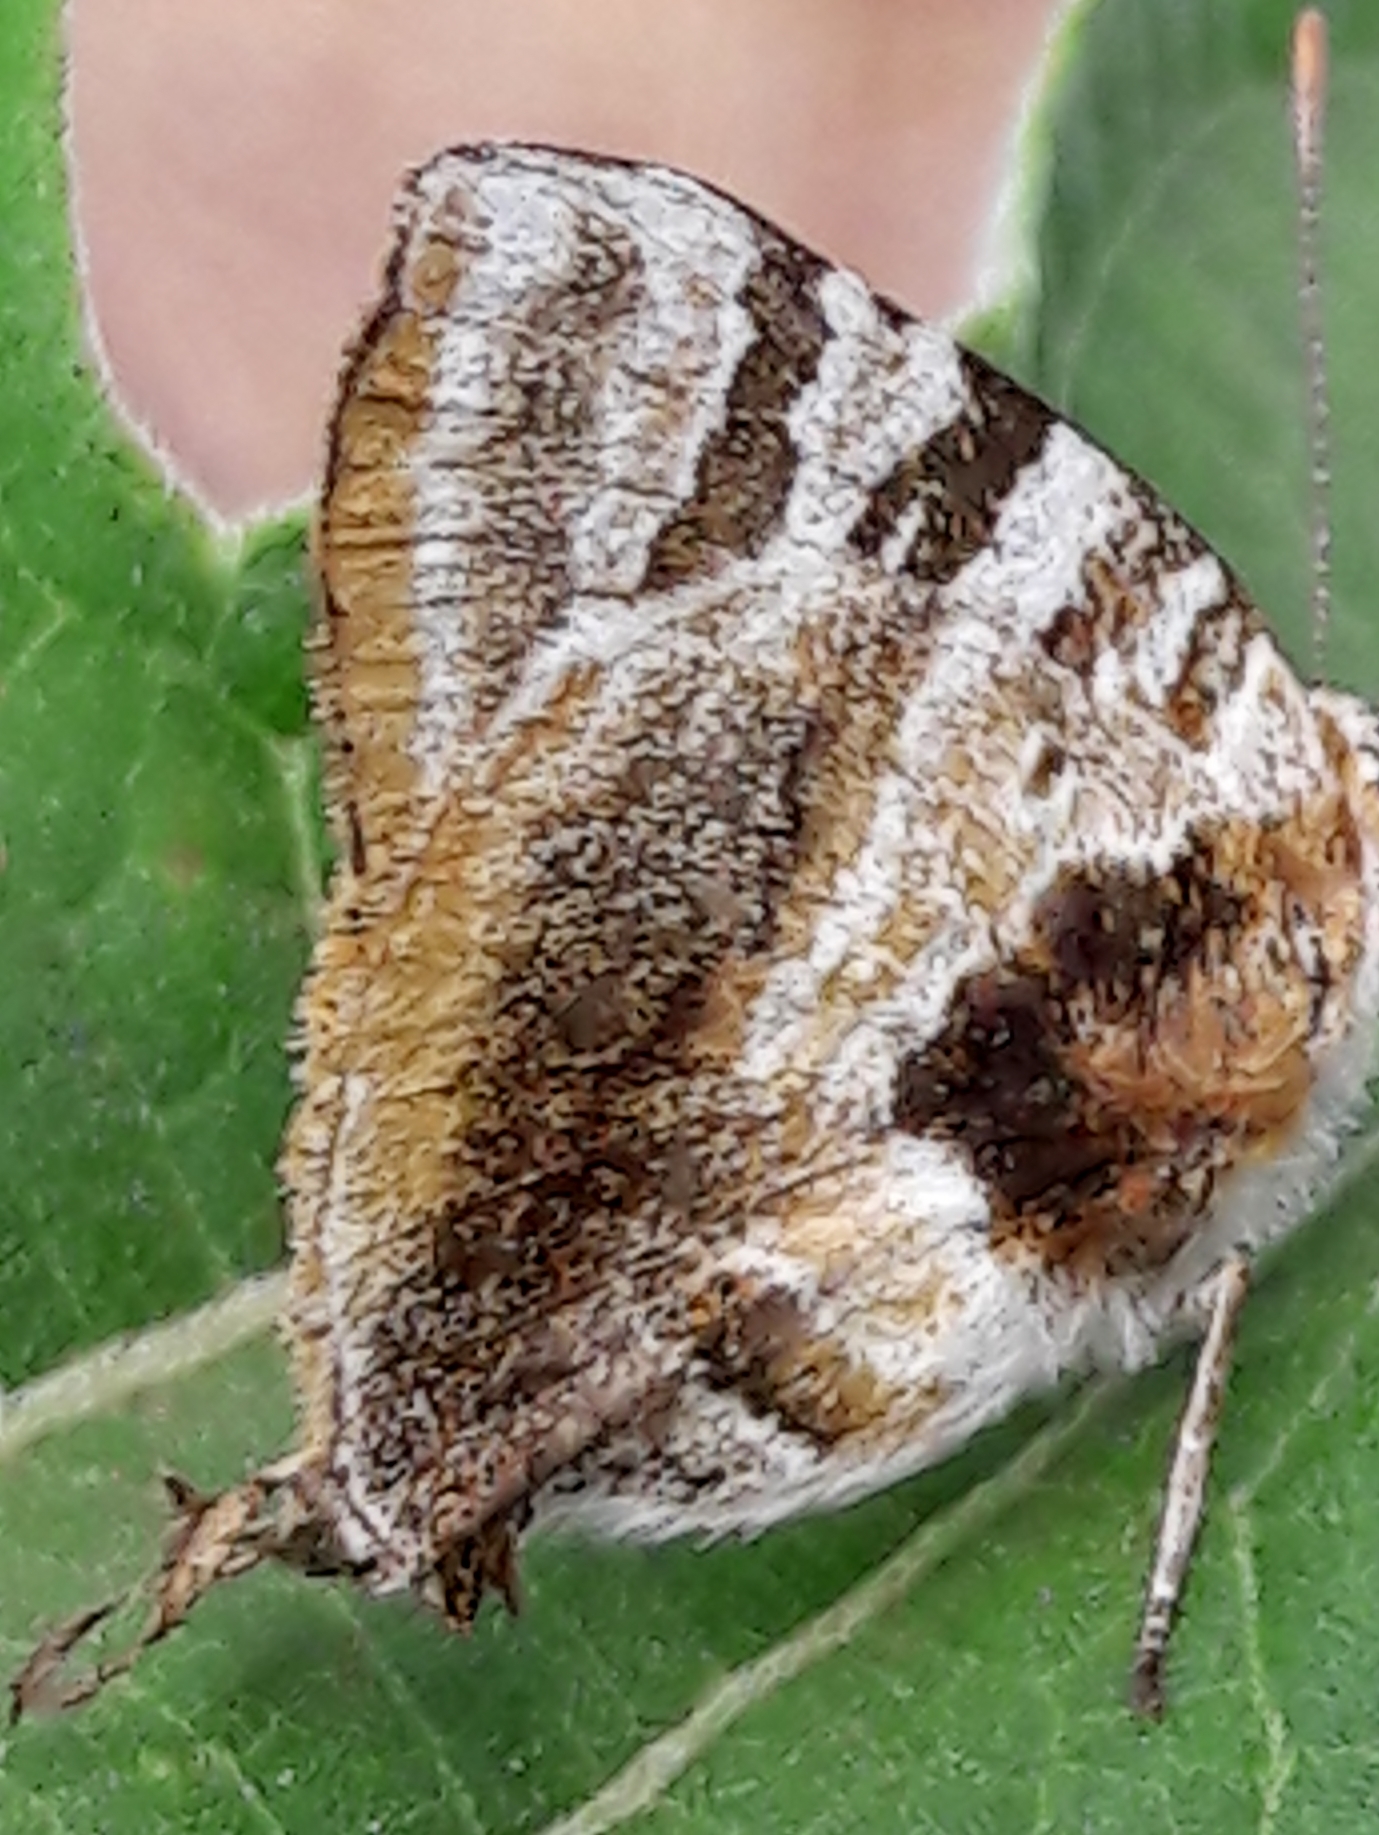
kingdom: Animalia
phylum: Arthropoda
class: Insecta
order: Lepidoptera
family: Lycaenidae
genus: Arawacus
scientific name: Arawacus ellida
